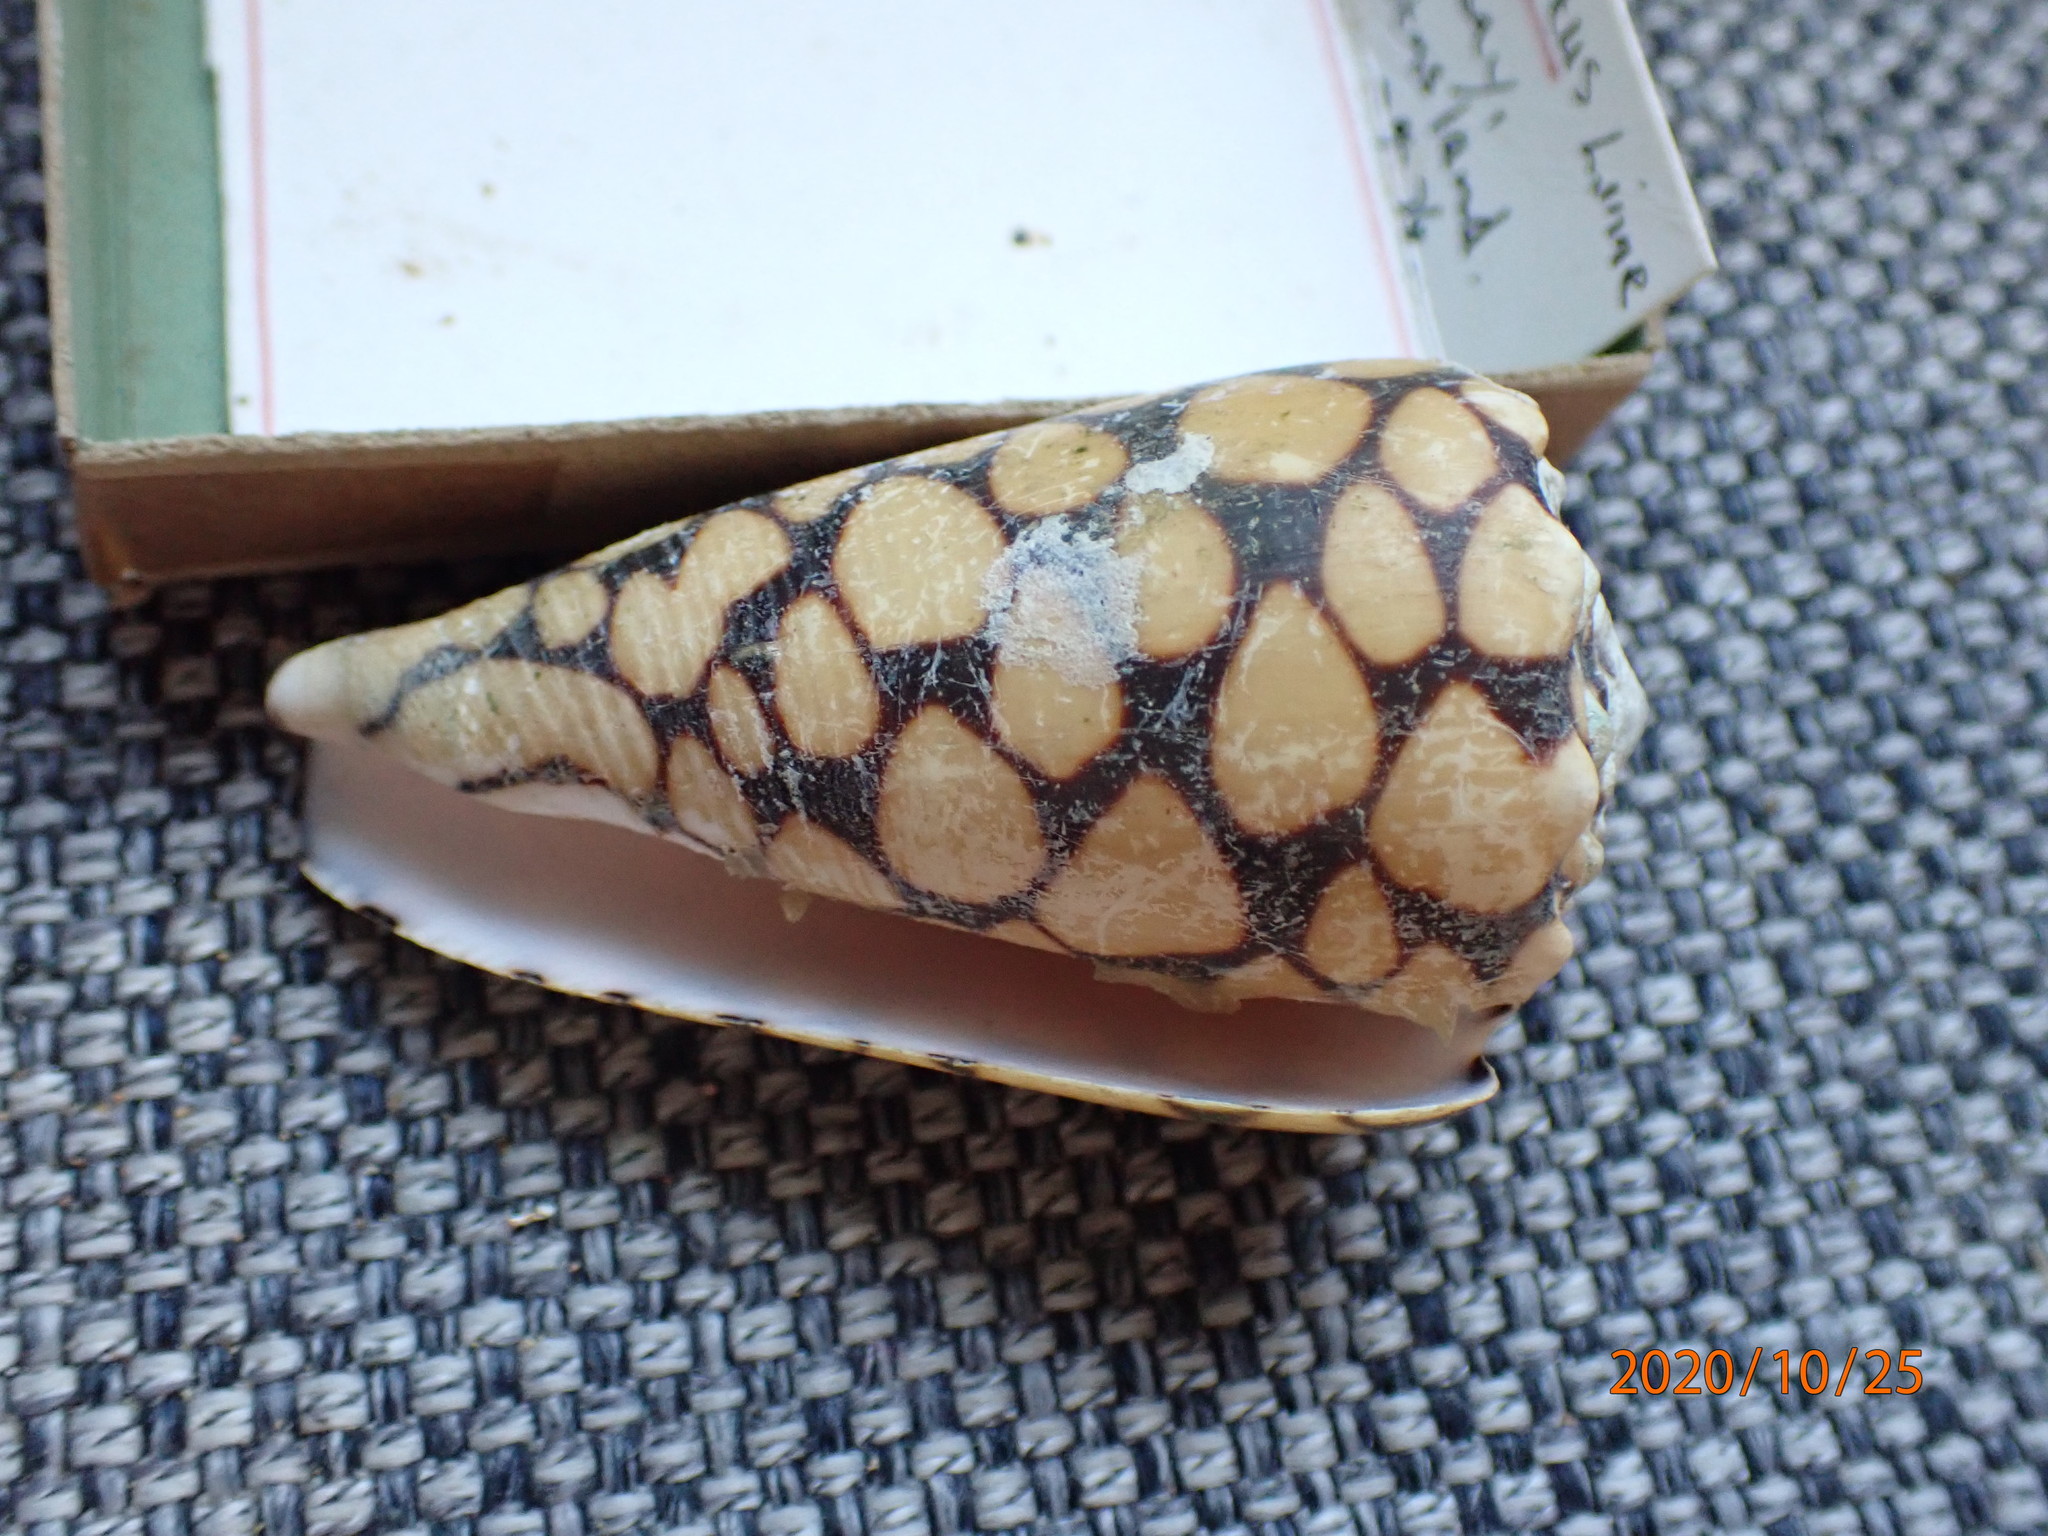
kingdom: Animalia
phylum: Mollusca
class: Gastropoda
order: Neogastropoda
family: Conidae
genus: Conus
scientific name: Conus marmoreus
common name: Marbled cone
